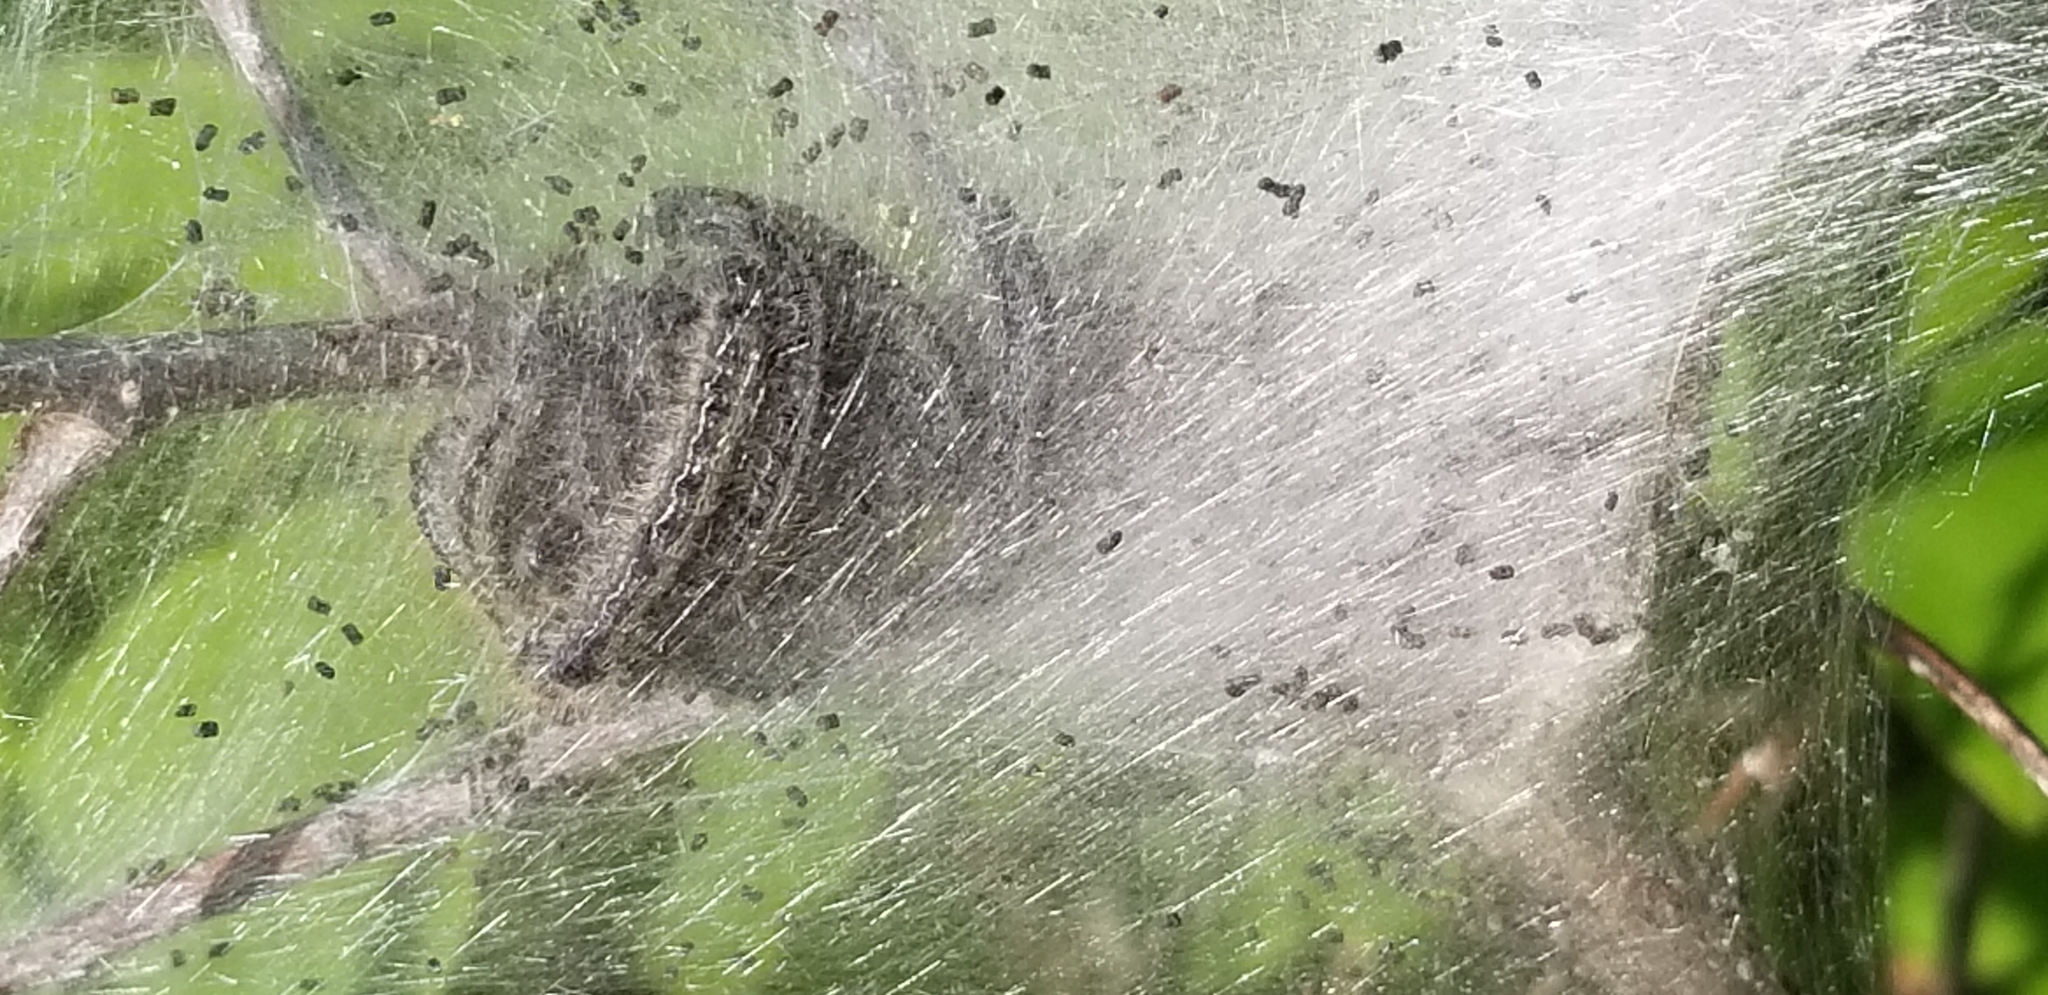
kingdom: Animalia
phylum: Arthropoda
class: Insecta
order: Lepidoptera
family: Lasiocampidae
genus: Malacosoma
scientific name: Malacosoma americana
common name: Eastern tent caterpillar moth
